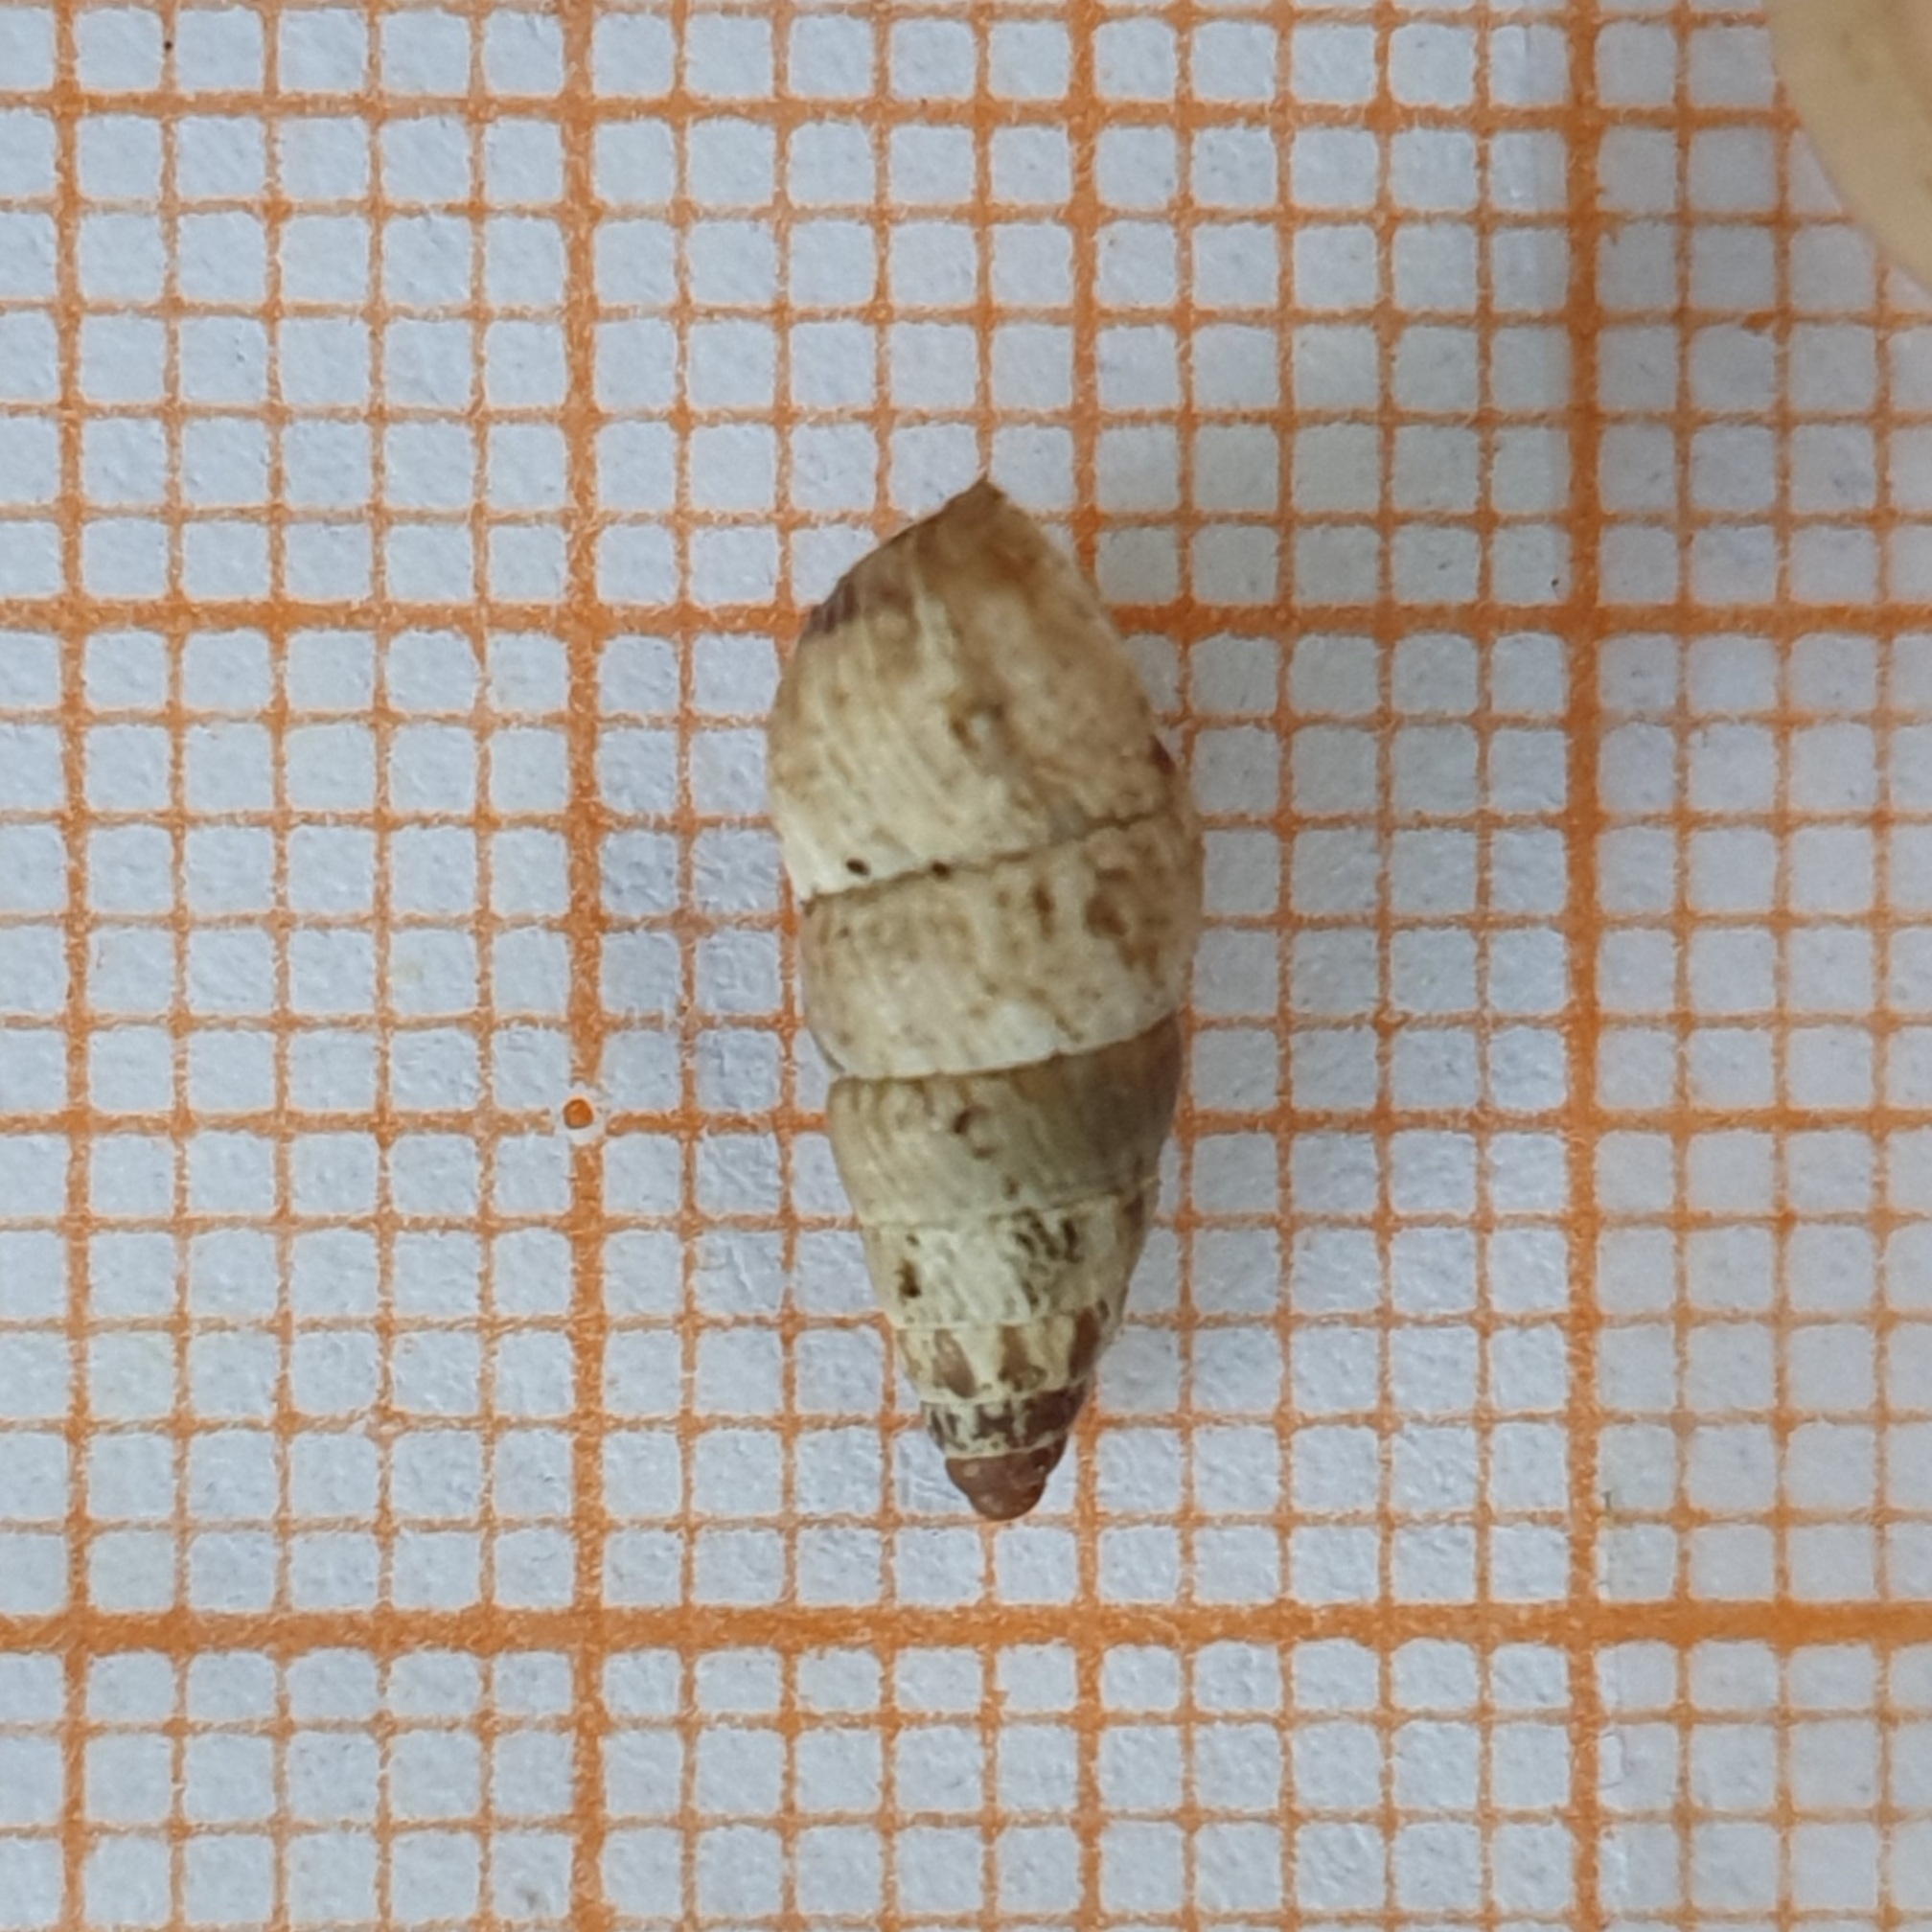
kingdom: Animalia
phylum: Mollusca
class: Gastropoda
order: Stylommatophora
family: Geomitridae
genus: Cochlicella
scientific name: Cochlicella acuta
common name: Pointed snail
